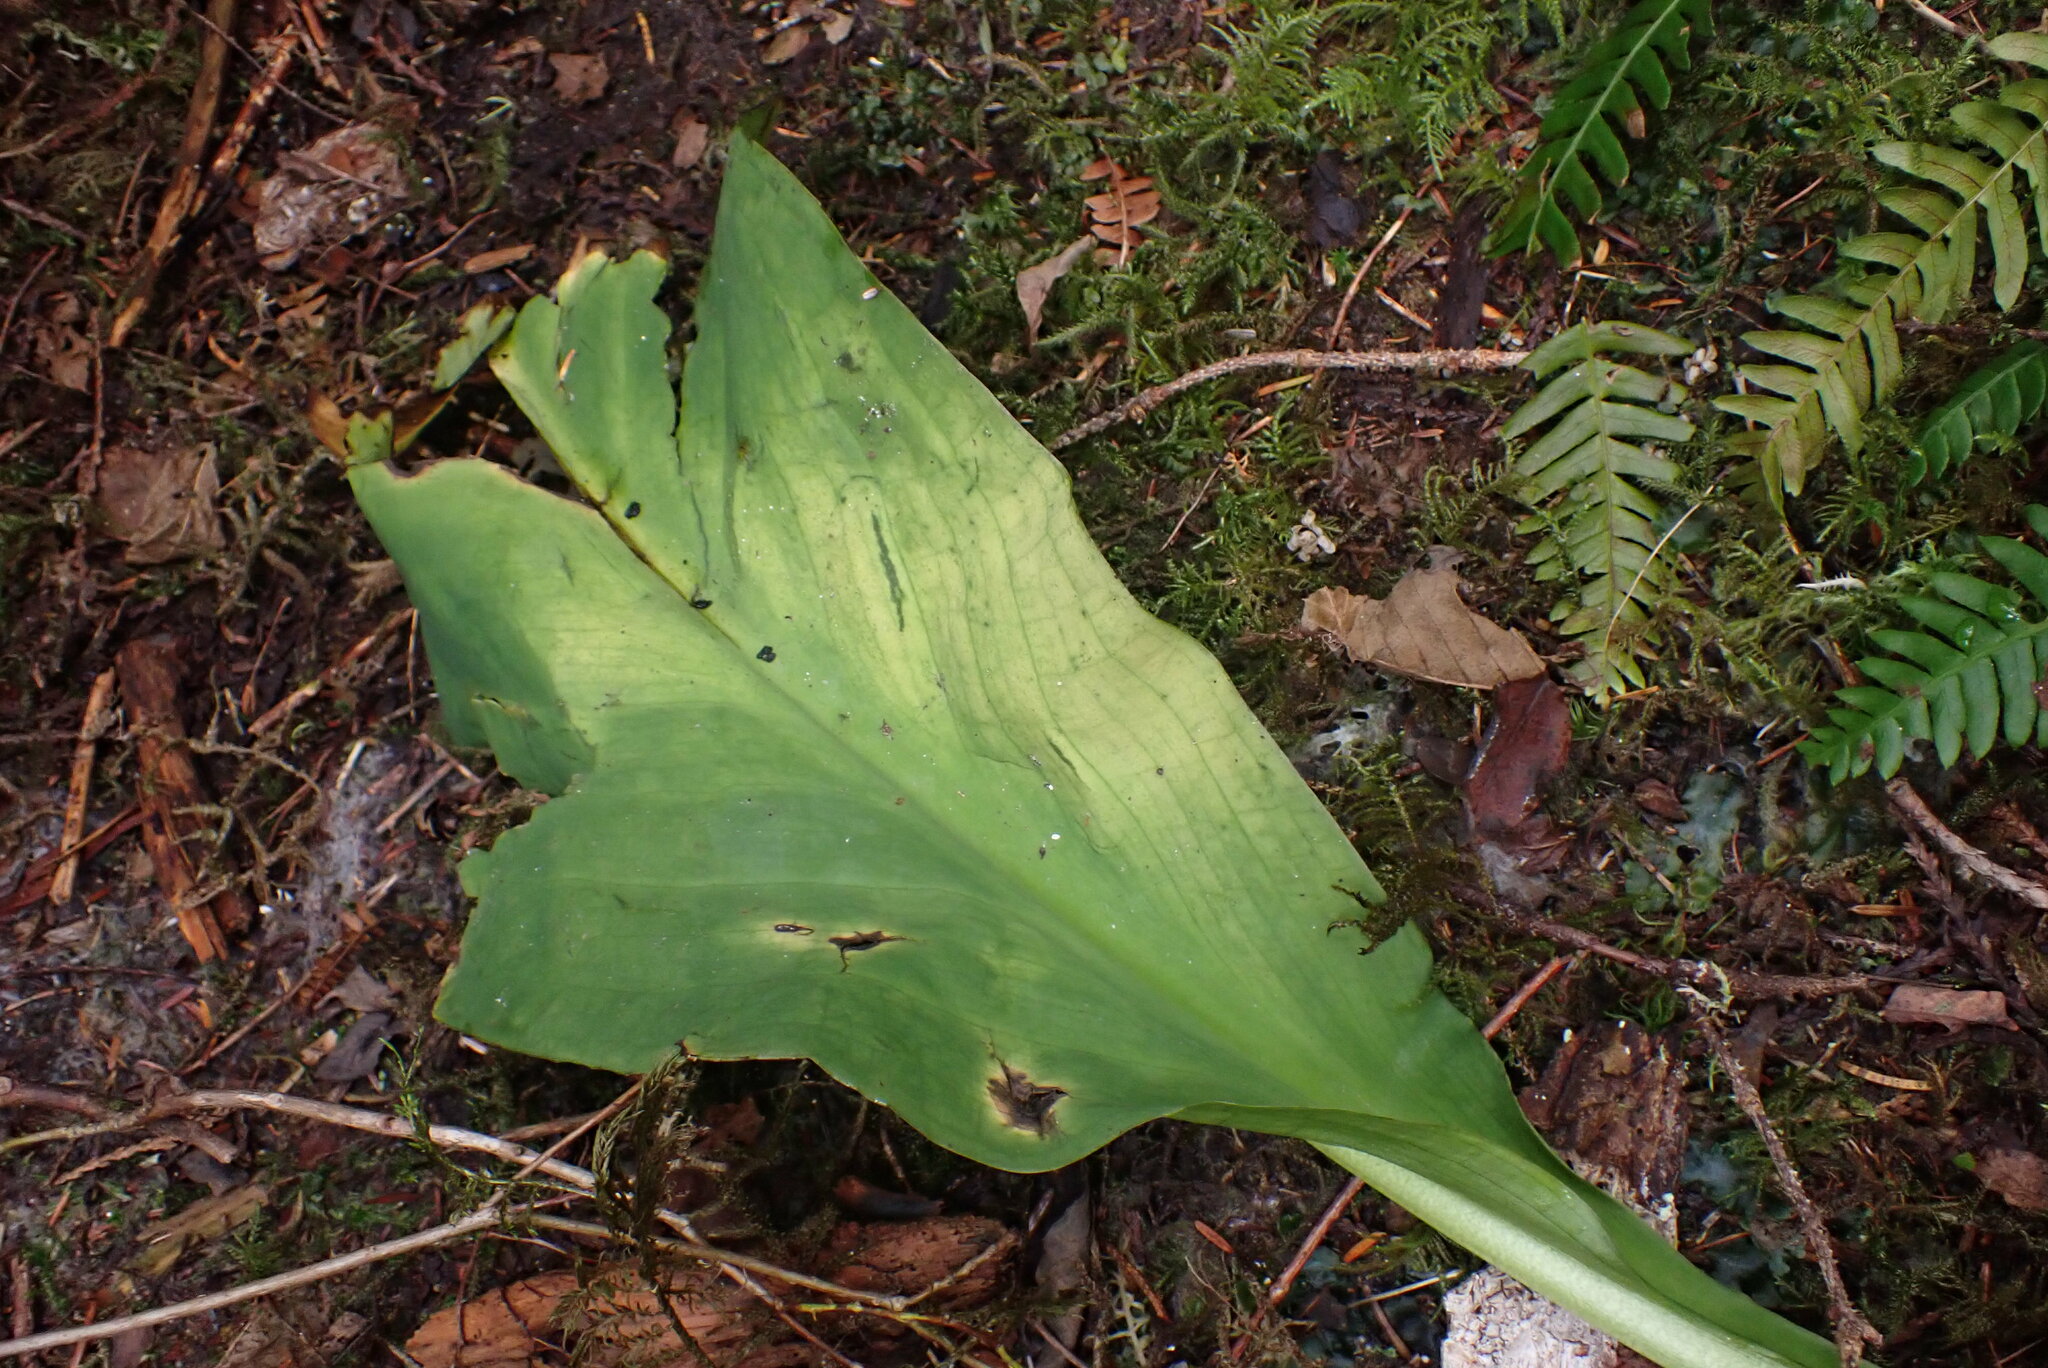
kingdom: Plantae
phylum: Tracheophyta
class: Liliopsida
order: Alismatales
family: Araceae
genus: Lysichiton
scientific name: Lysichiton americanus
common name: American skunk cabbage
